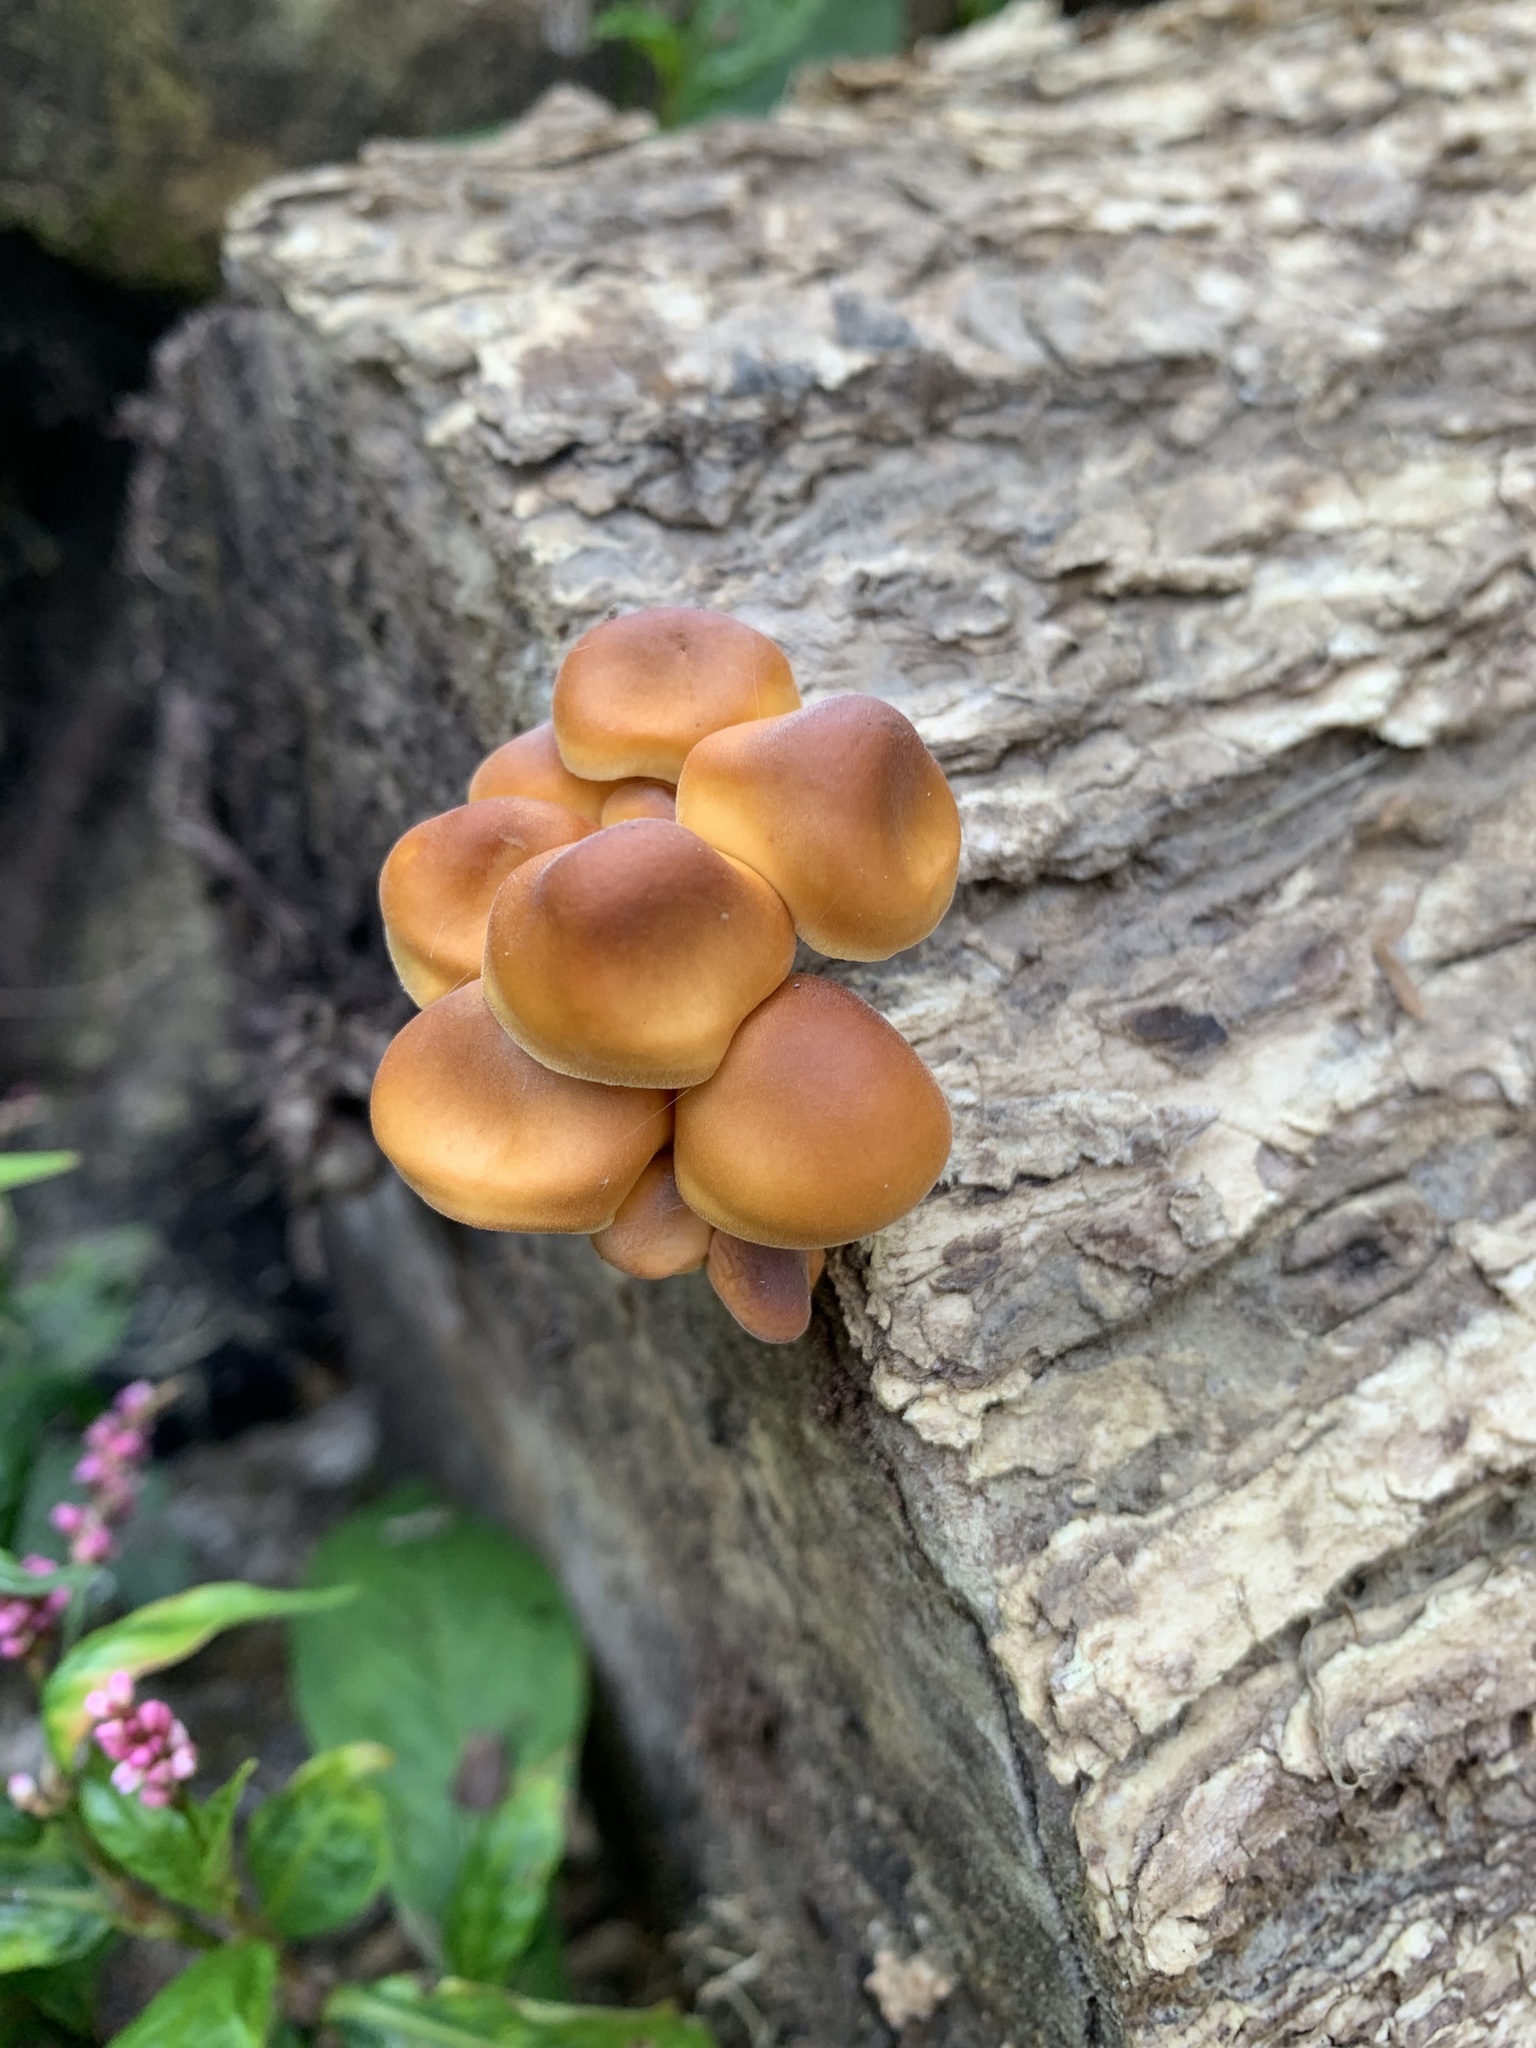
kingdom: Fungi
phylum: Basidiomycota
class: Agaricomycetes
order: Agaricales
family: Physalacriaceae
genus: Flammulina
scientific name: Flammulina velutipes
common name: Velvet shank
